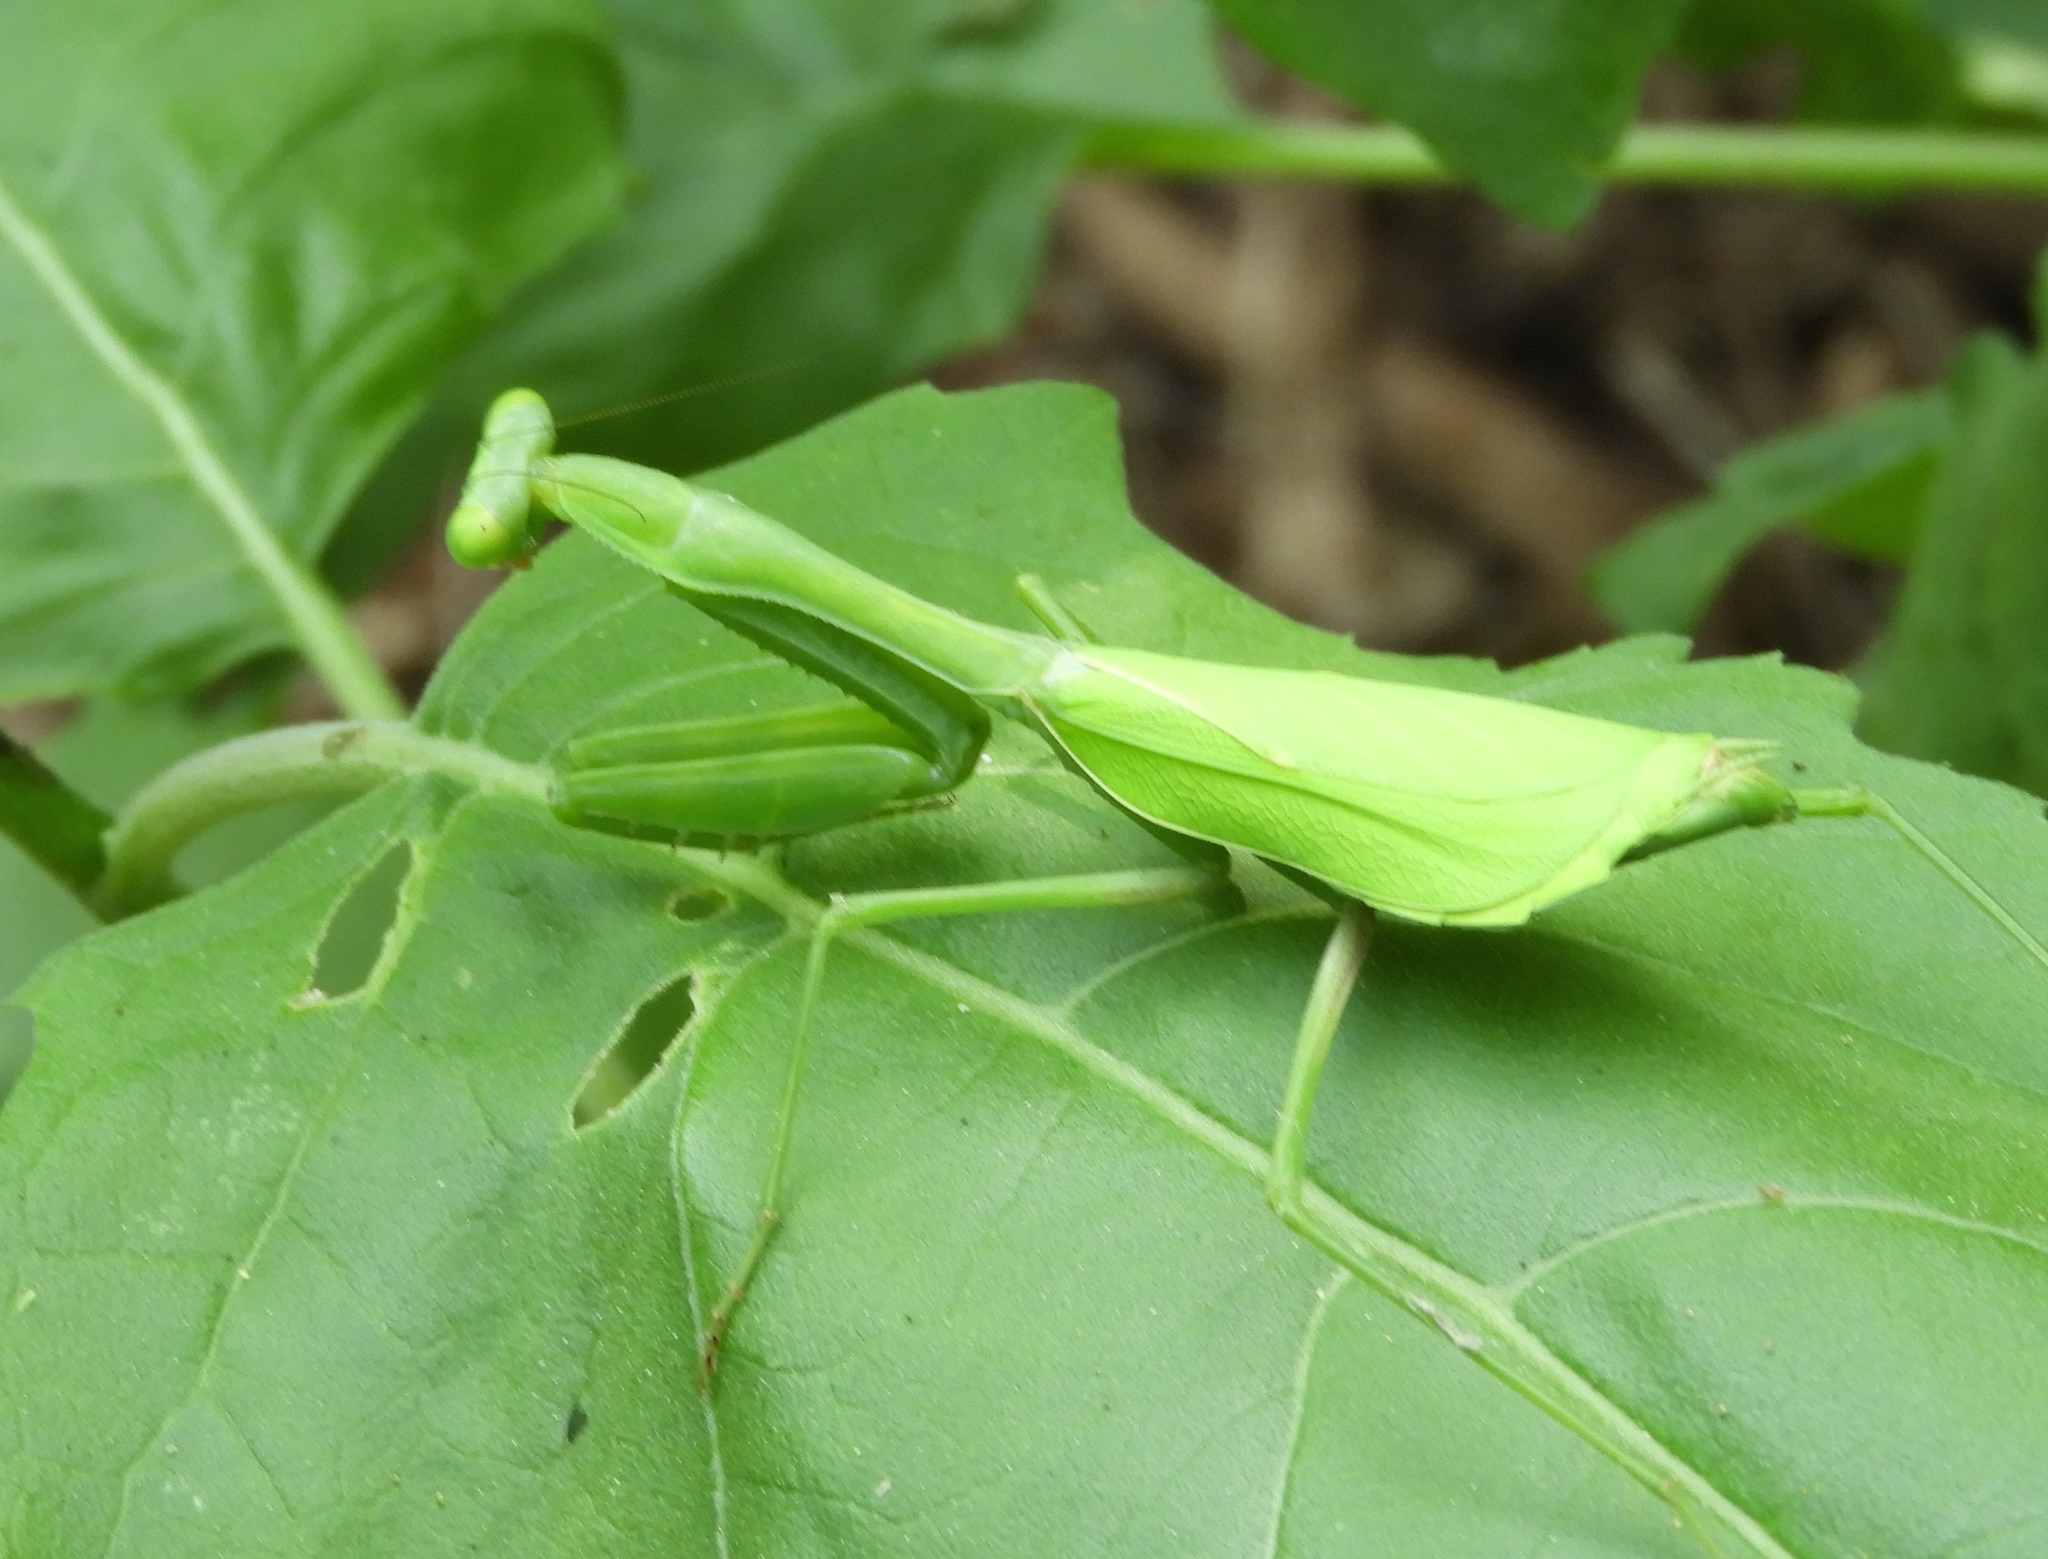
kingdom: Animalia
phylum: Arthropoda
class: Insecta
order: Mantodea
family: Mantidae
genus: Stagmomantis
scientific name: Stagmomantis limbata
